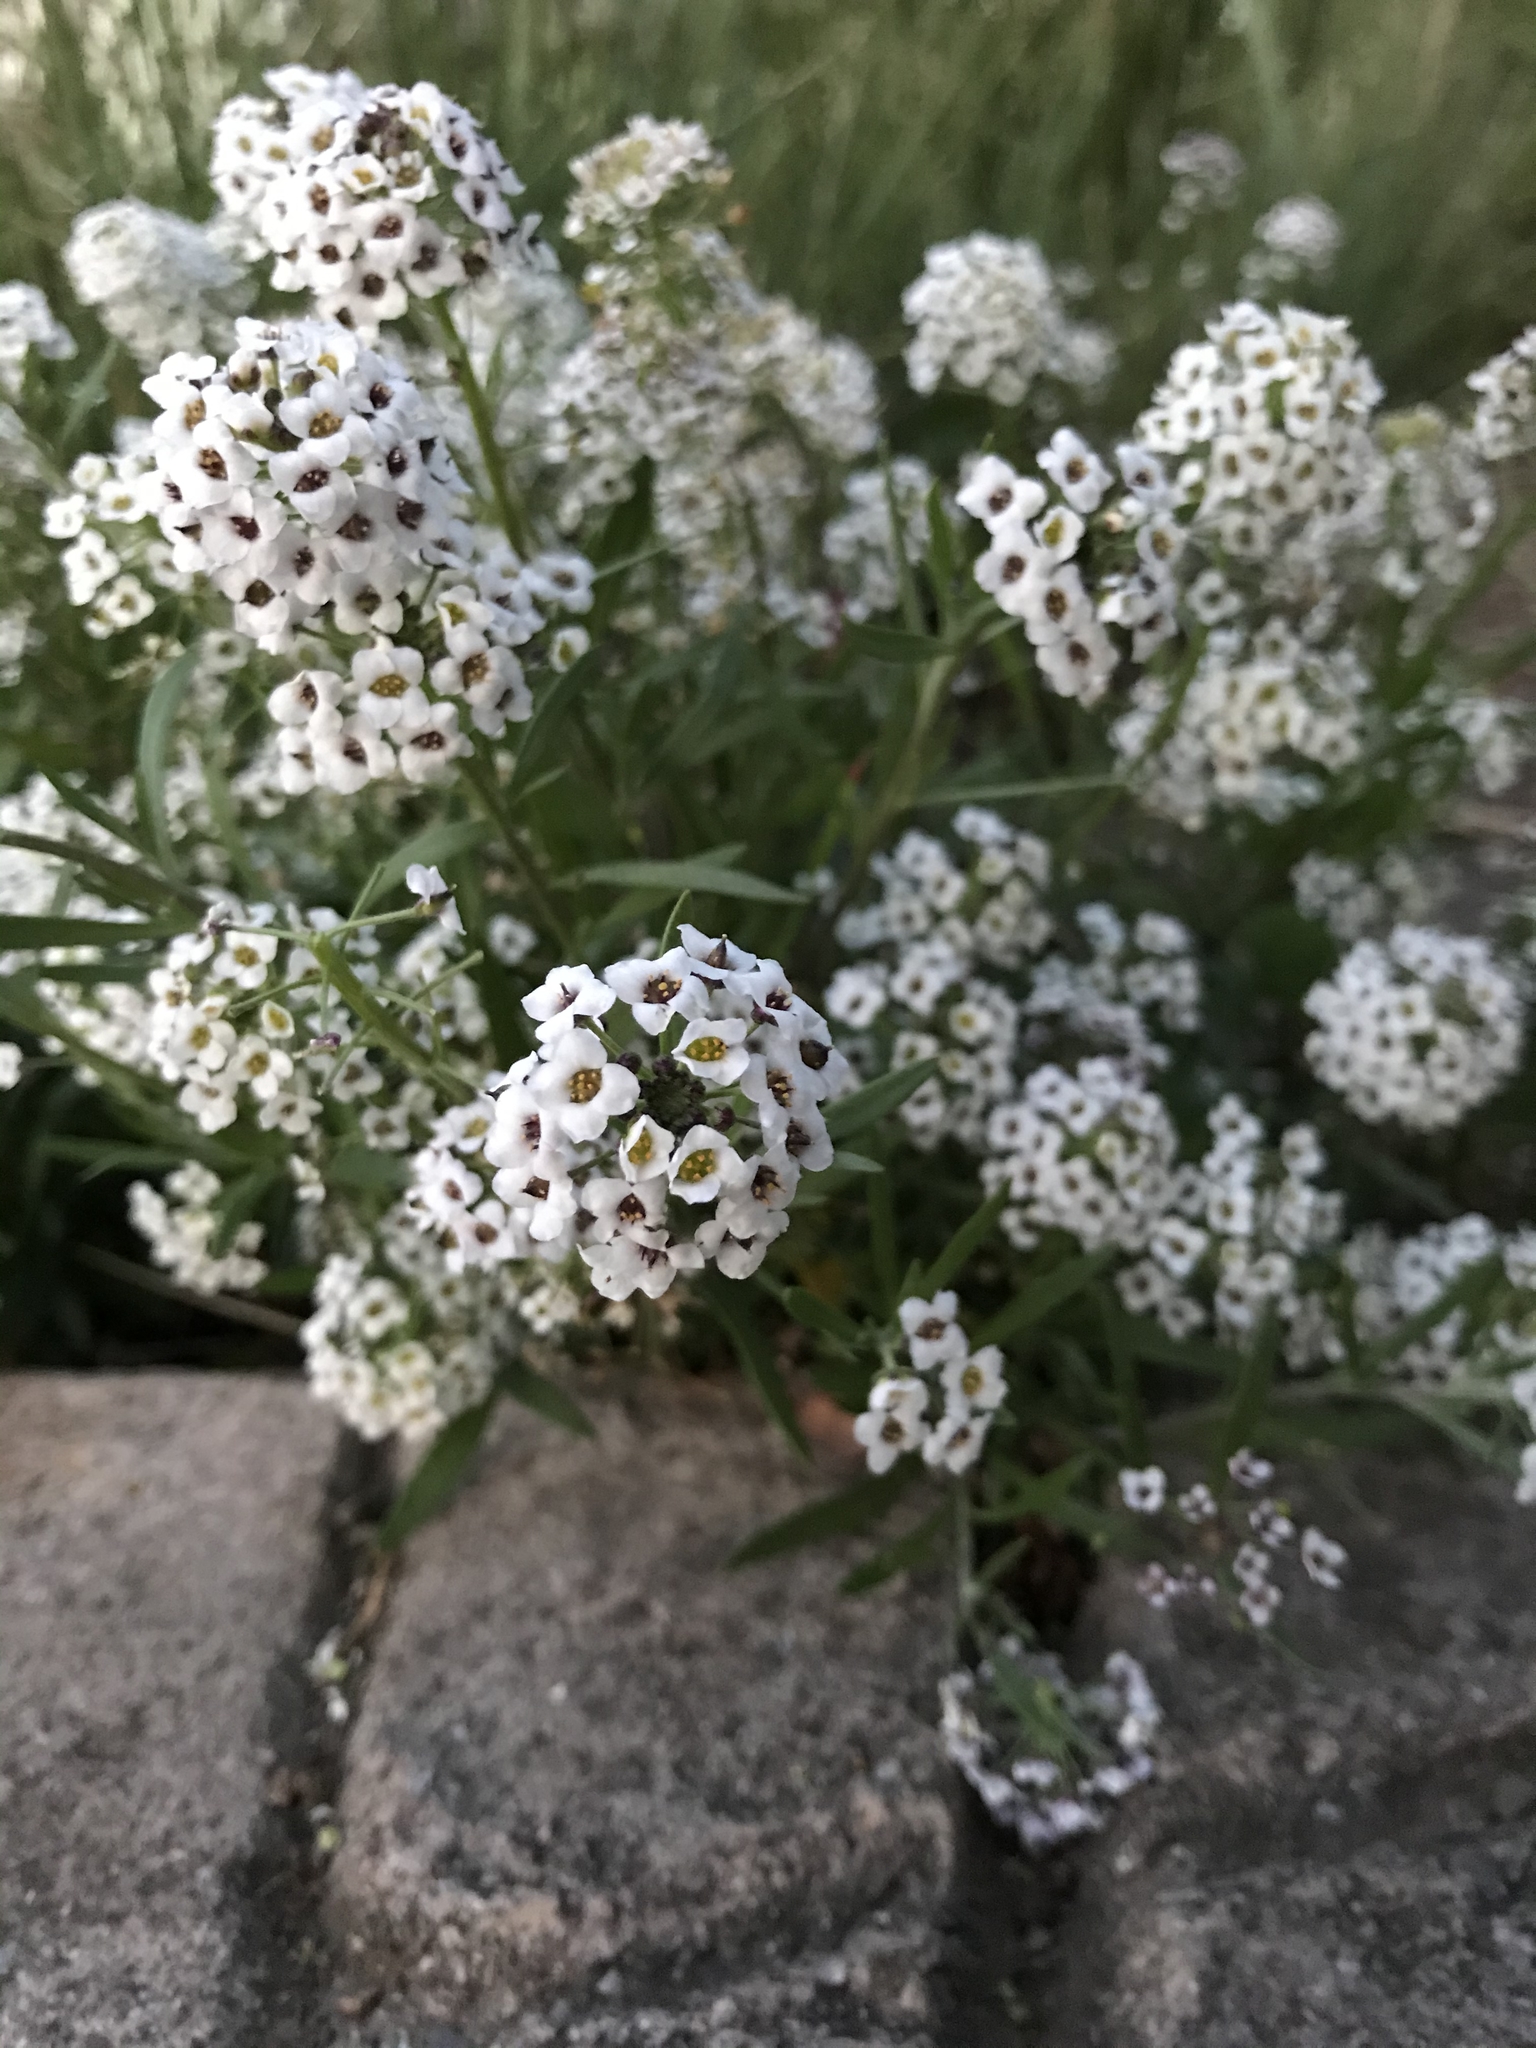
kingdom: Plantae
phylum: Tracheophyta
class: Magnoliopsida
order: Brassicales
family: Brassicaceae
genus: Lobularia
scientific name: Lobularia maritima
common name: Sweet alison
